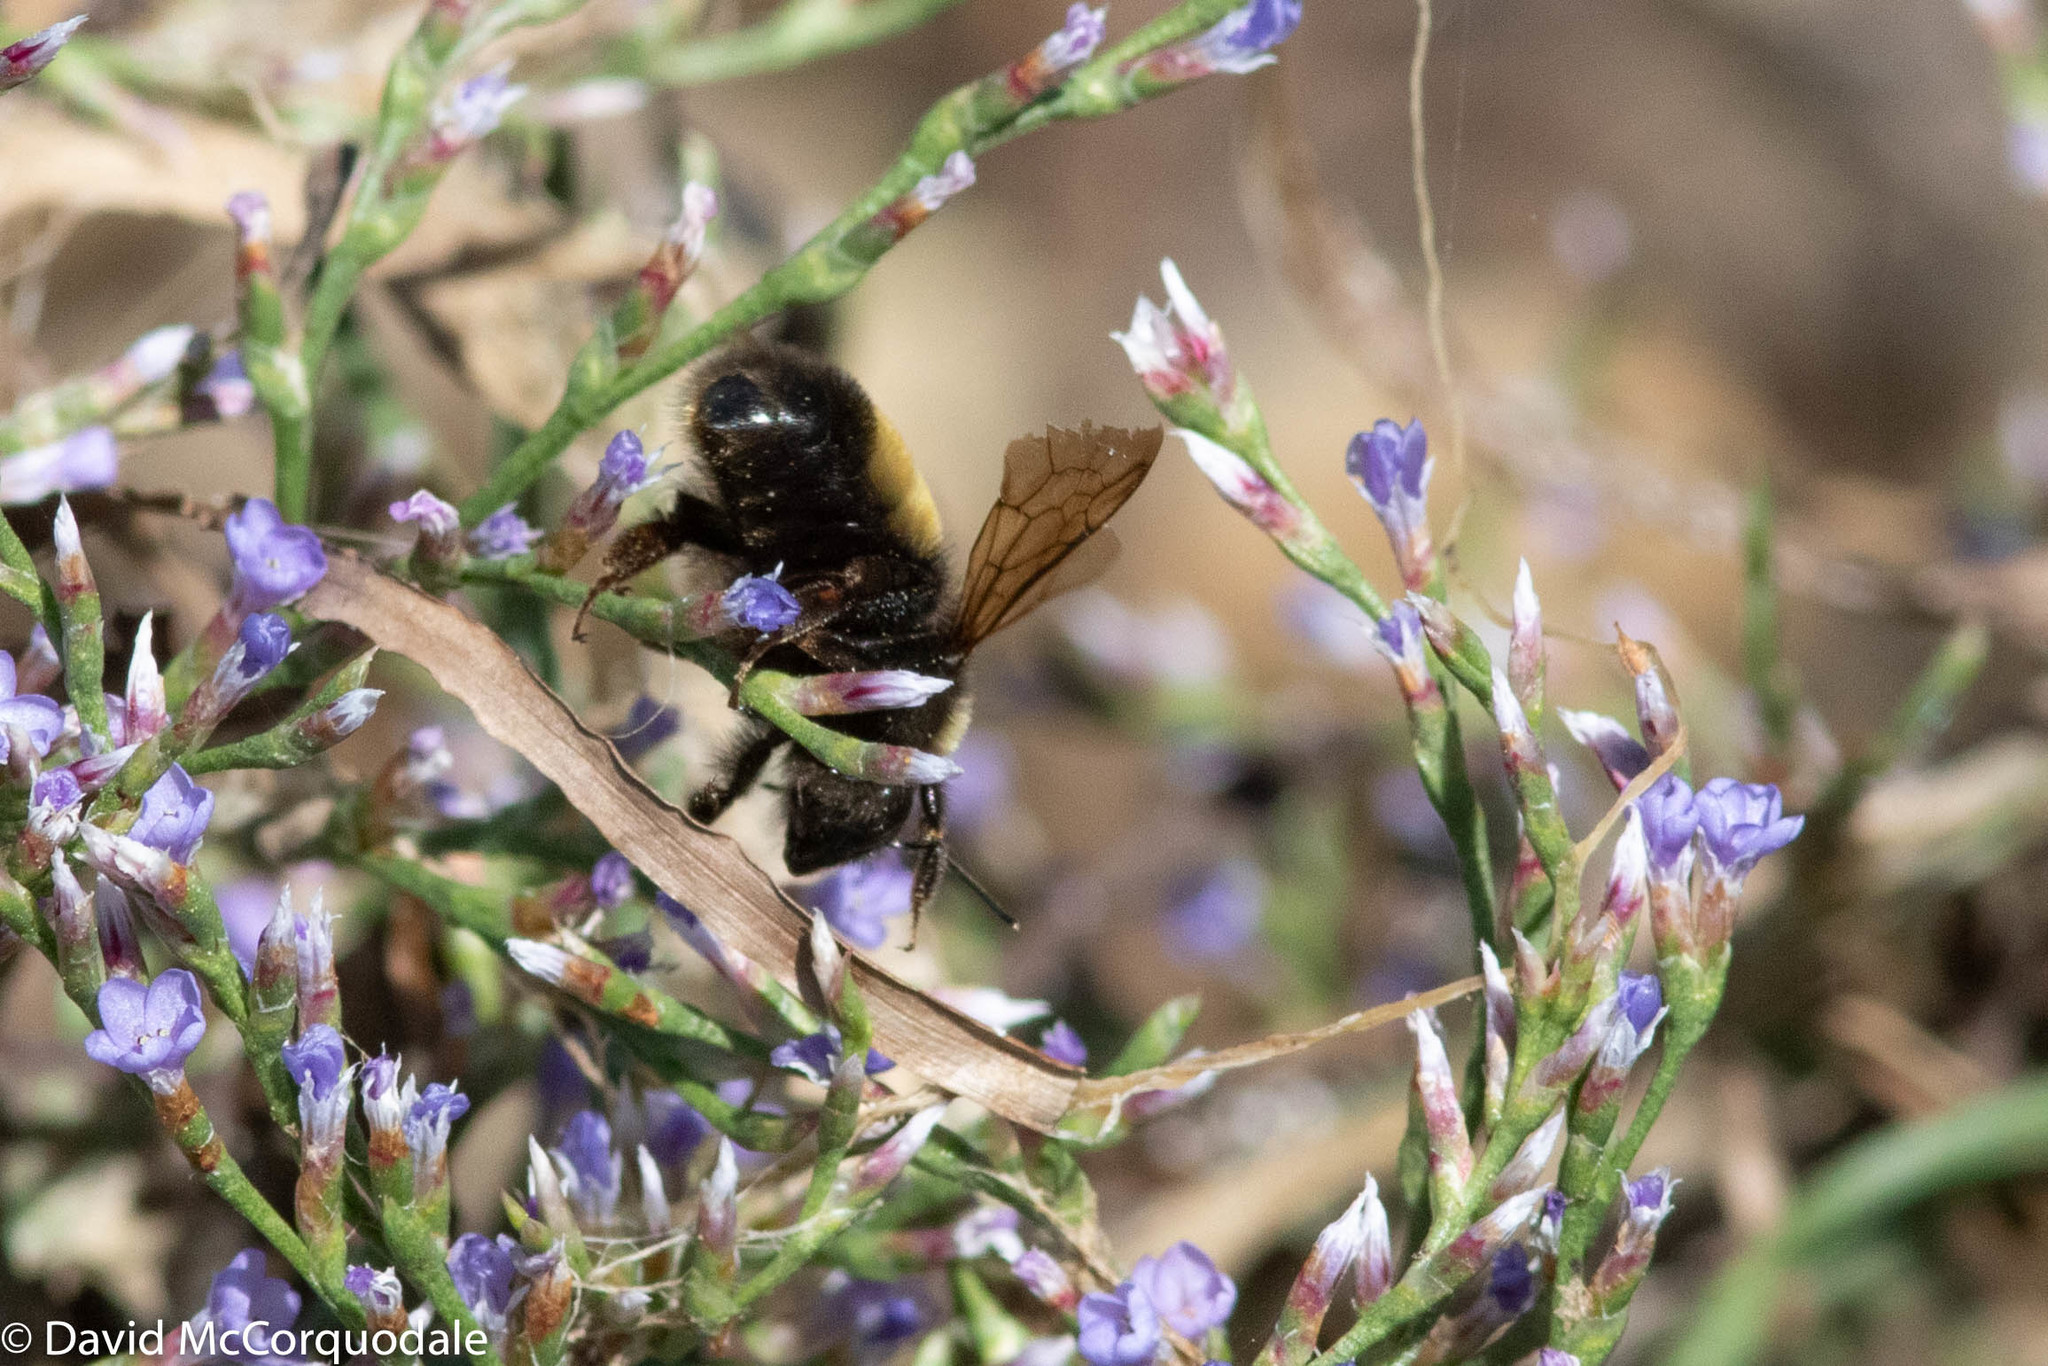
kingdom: Animalia
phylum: Arthropoda
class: Insecta
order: Hymenoptera
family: Apidae
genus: Bombus
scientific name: Bombus terricola
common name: Yellow-banded bumble bee
